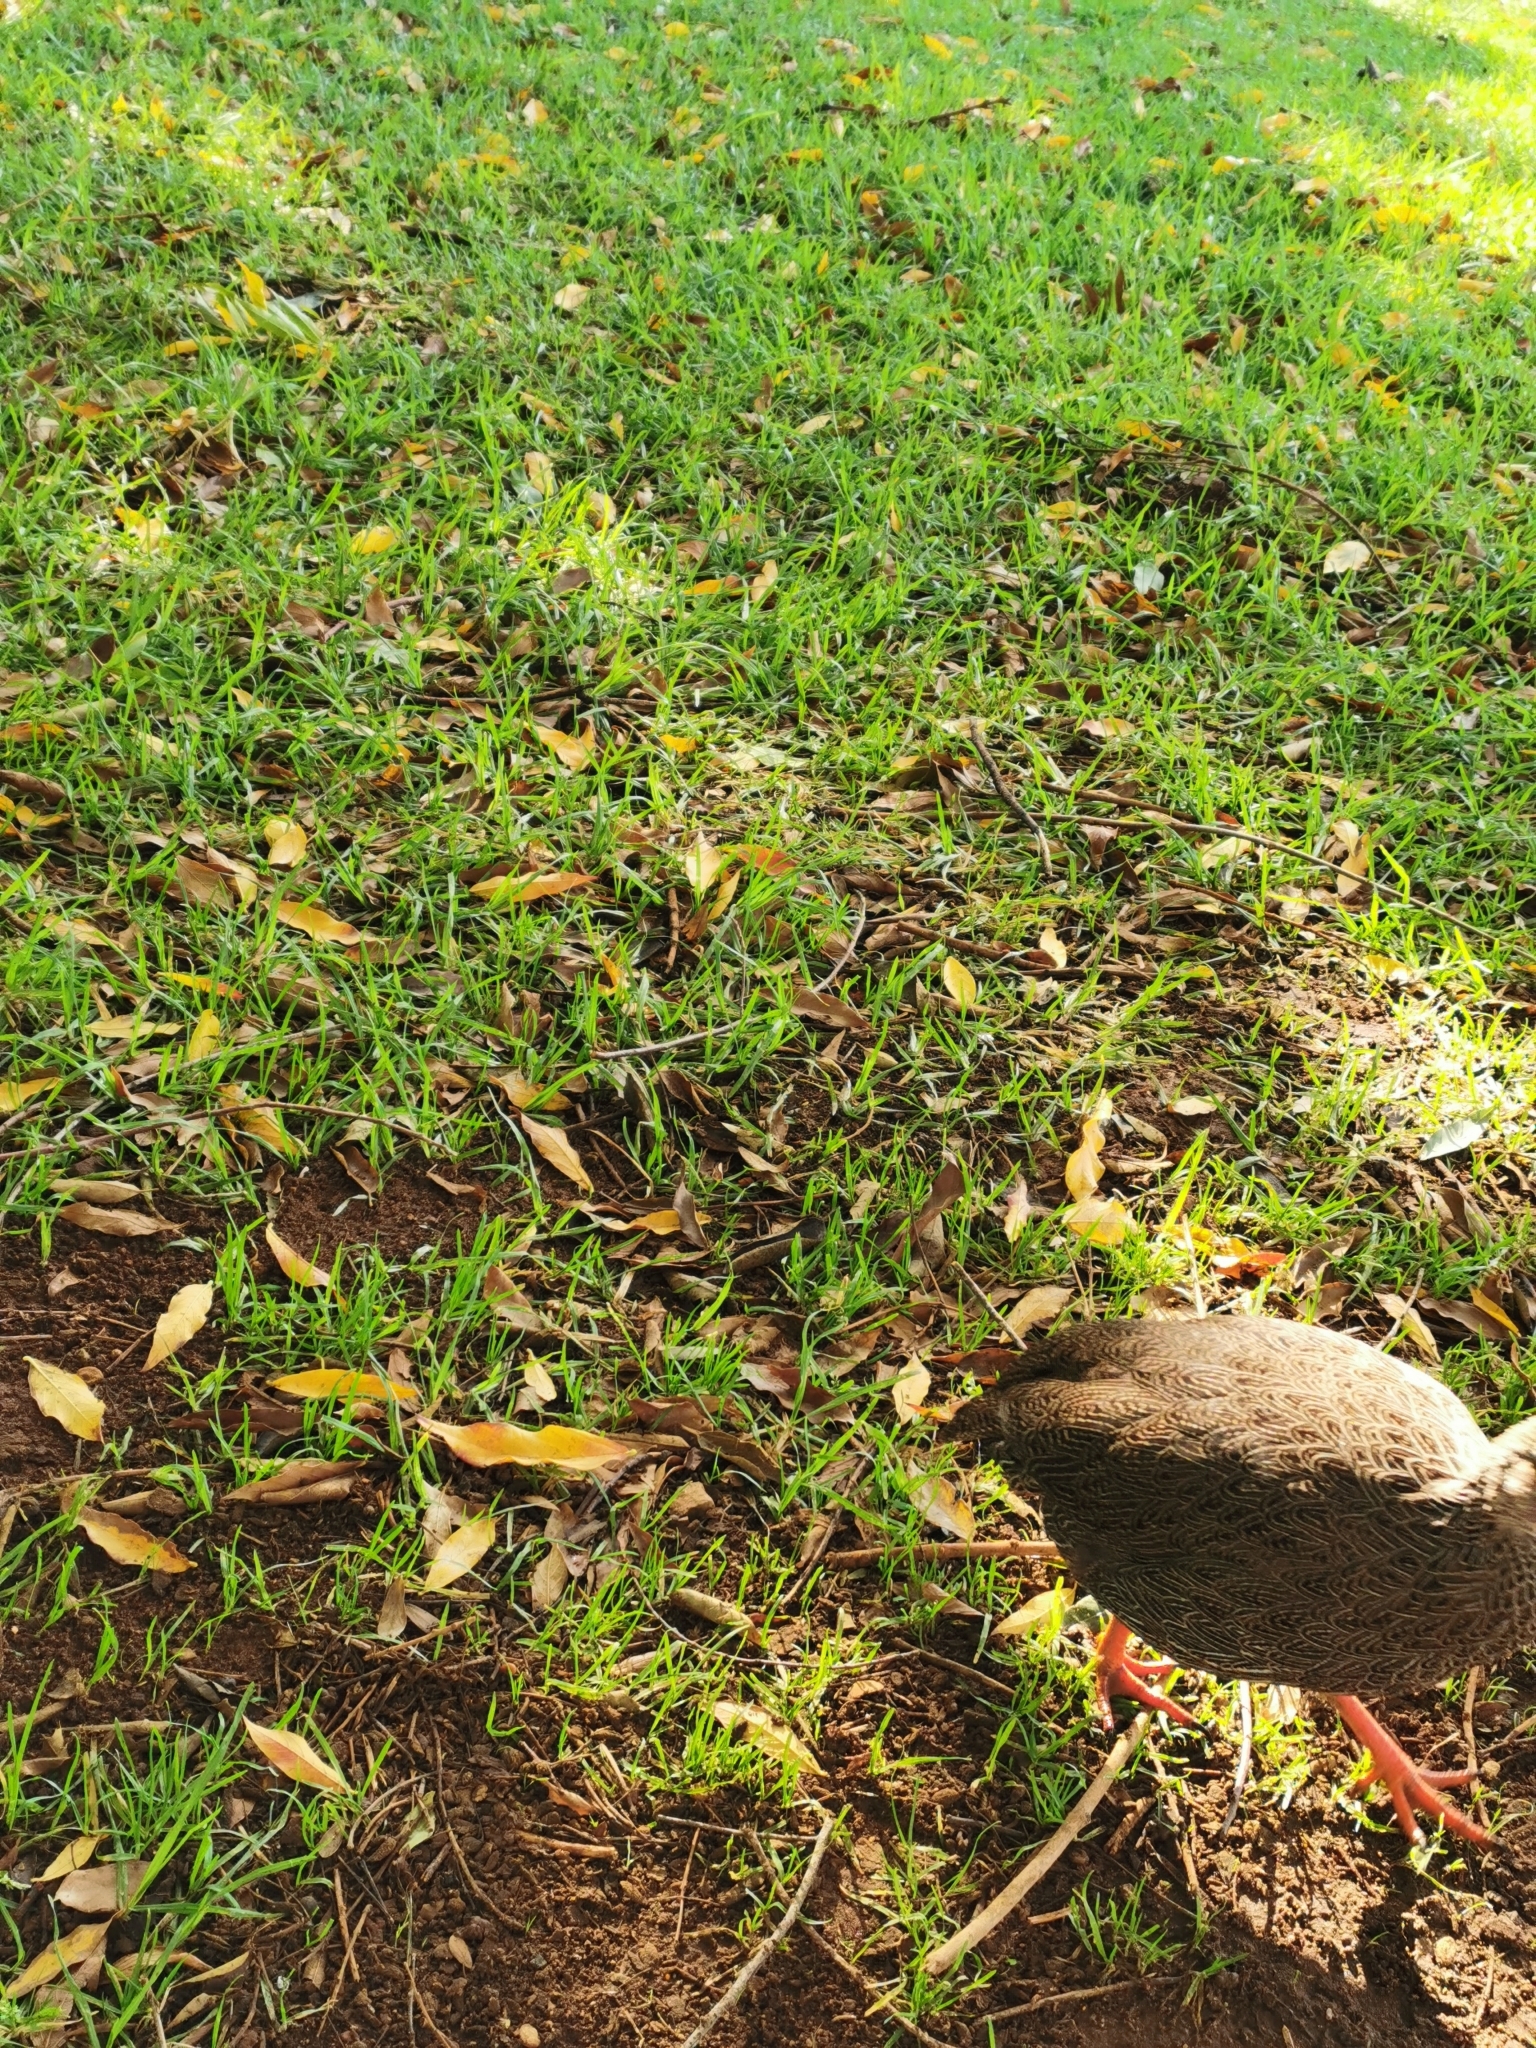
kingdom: Animalia
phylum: Chordata
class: Aves
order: Galliformes
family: Phasianidae
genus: Pternistis
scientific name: Pternistis capensis
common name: Cape spurfowl
